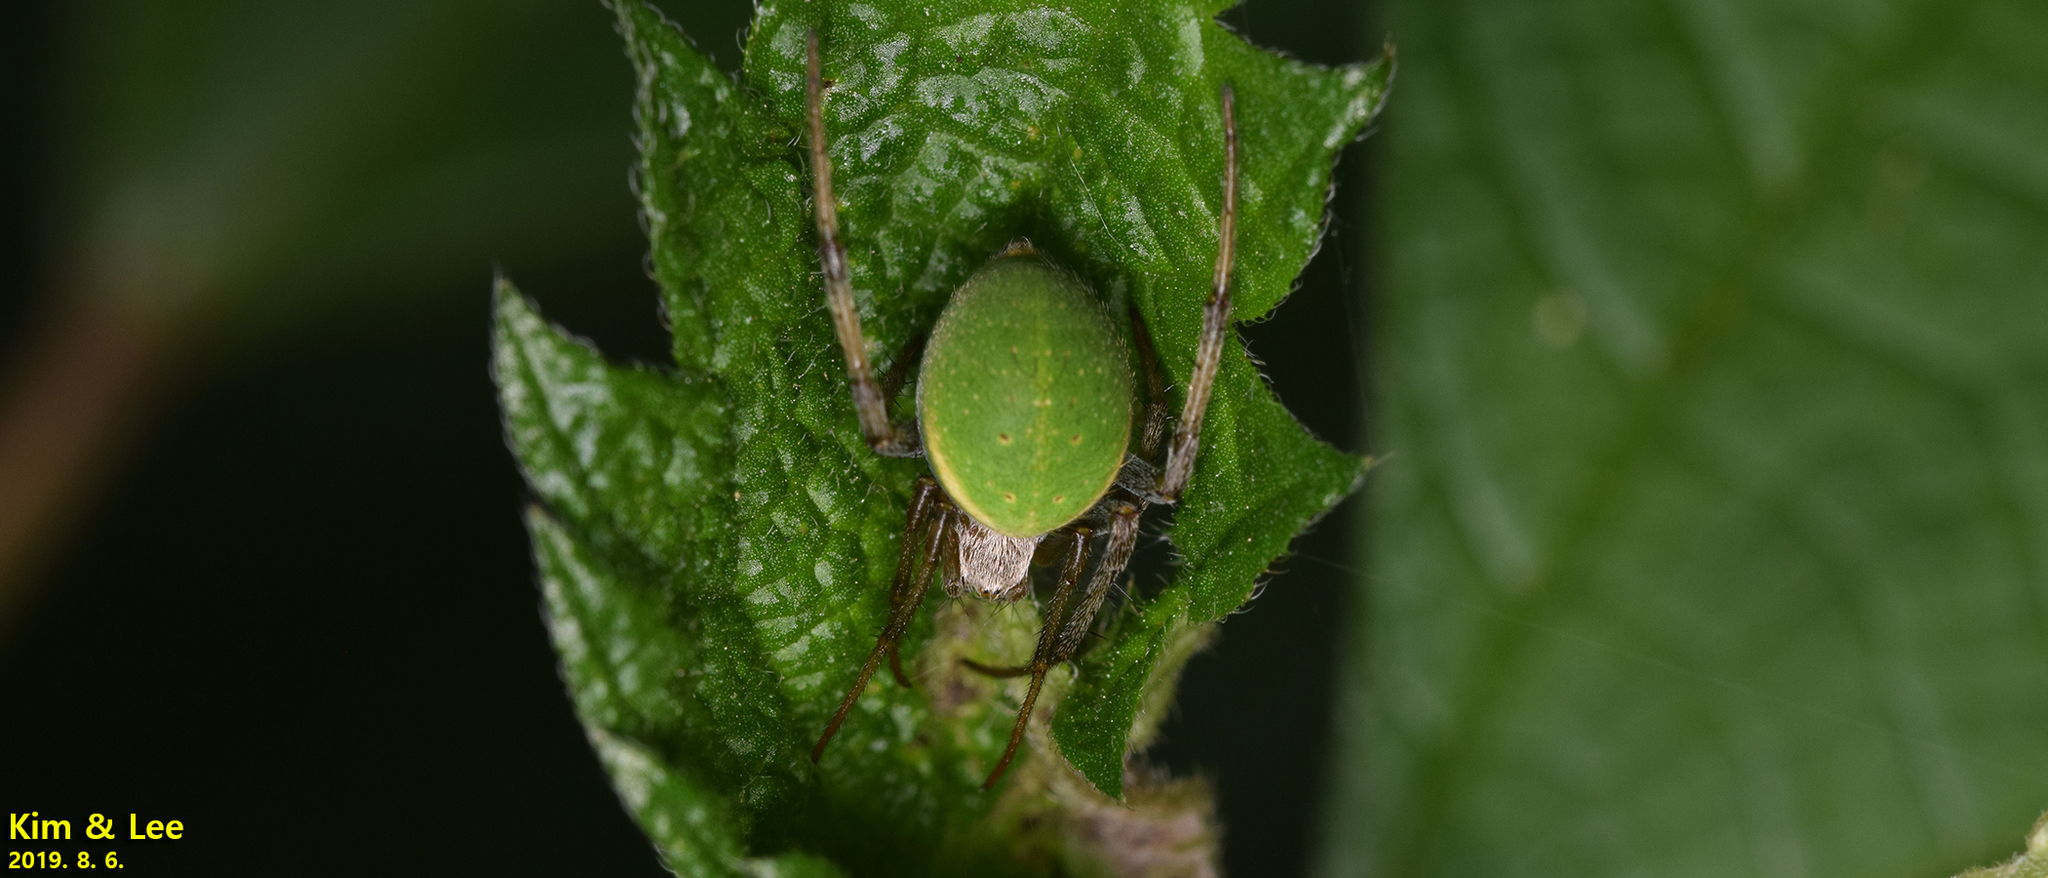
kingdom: Animalia
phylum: Arthropoda
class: Arachnida
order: Araneae
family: Araneidae
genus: Neoscona
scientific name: Neoscona scylloides
